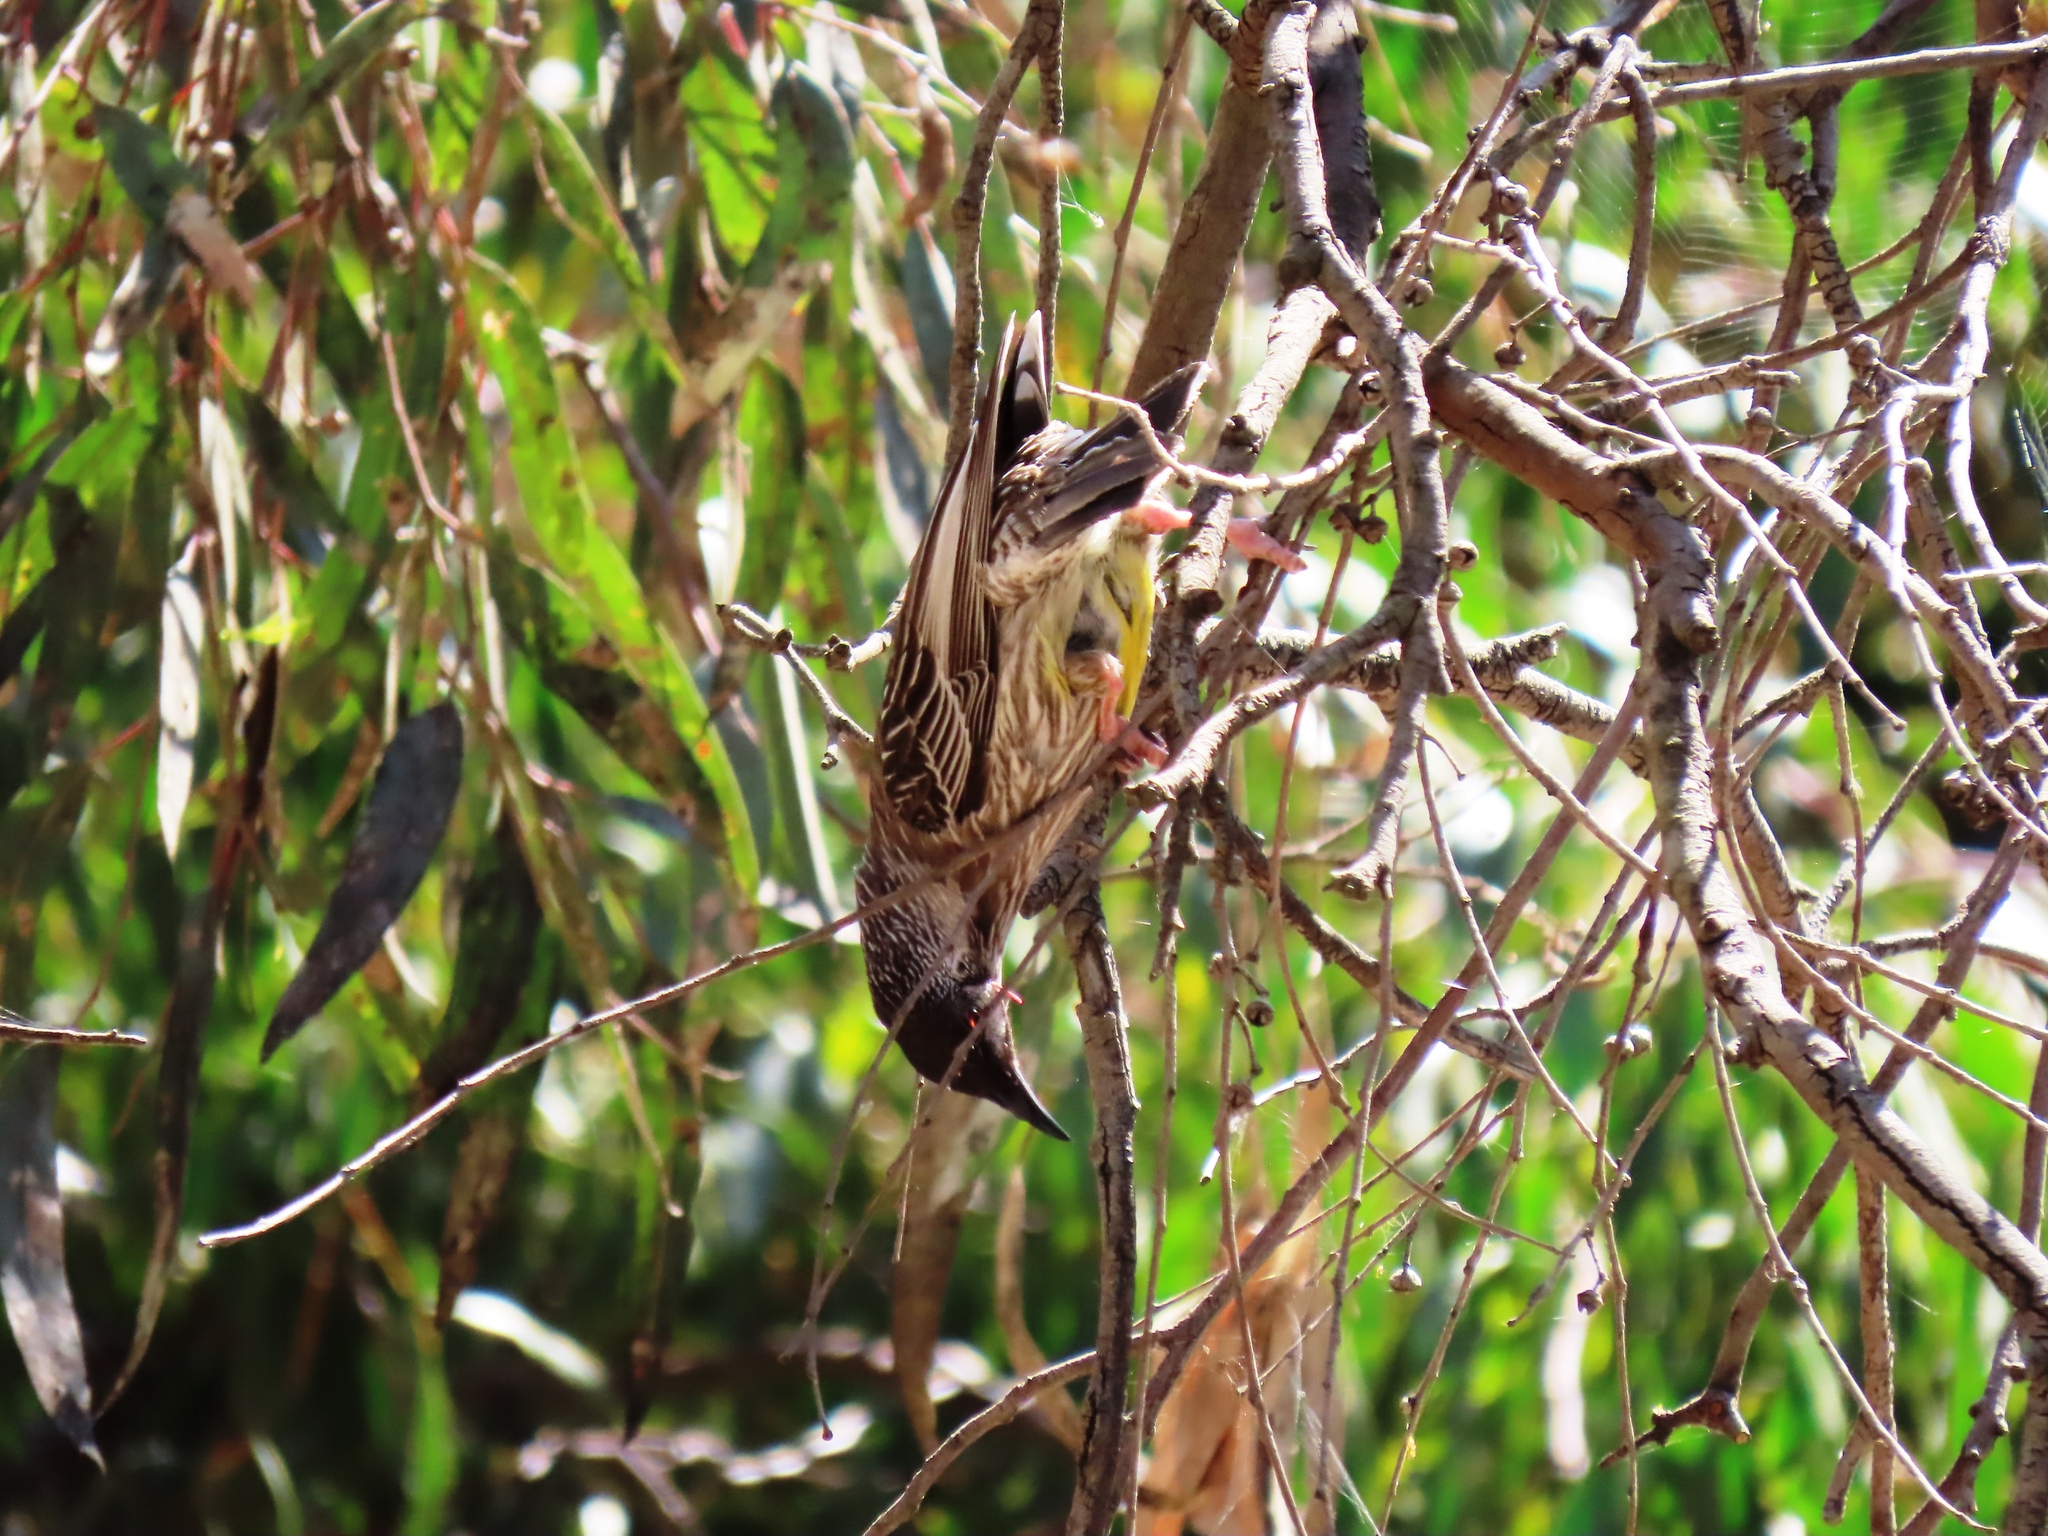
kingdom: Animalia
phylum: Chordata
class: Aves
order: Passeriformes
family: Meliphagidae
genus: Anthochaera
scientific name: Anthochaera carunculata
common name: Red wattlebird
